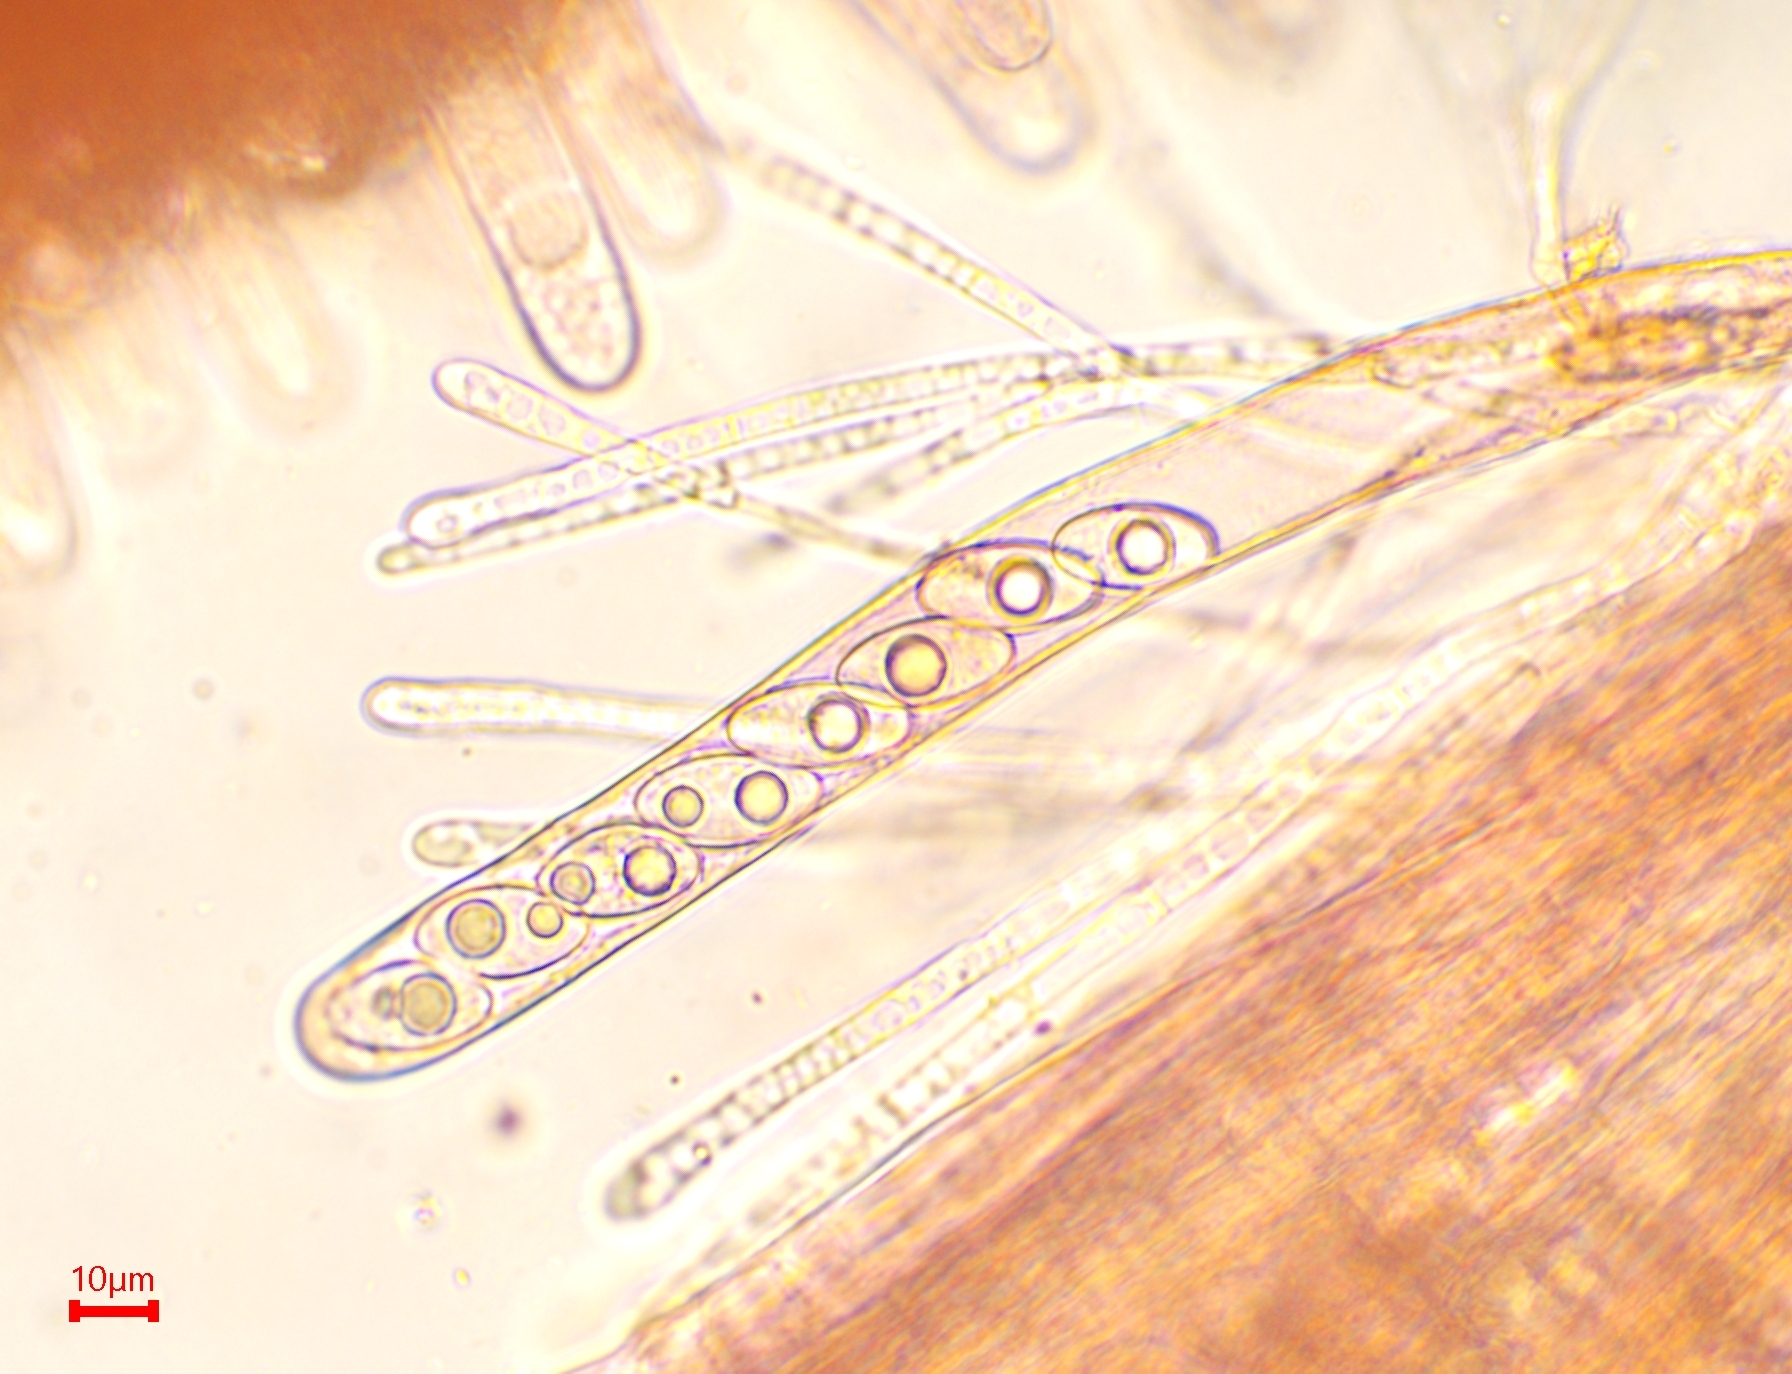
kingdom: Fungi
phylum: Ascomycota
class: Pezizomycetes
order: Pezizales
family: Pyronemataceae
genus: Geopora
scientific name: Geopora sumneriana
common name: Cedar cup
